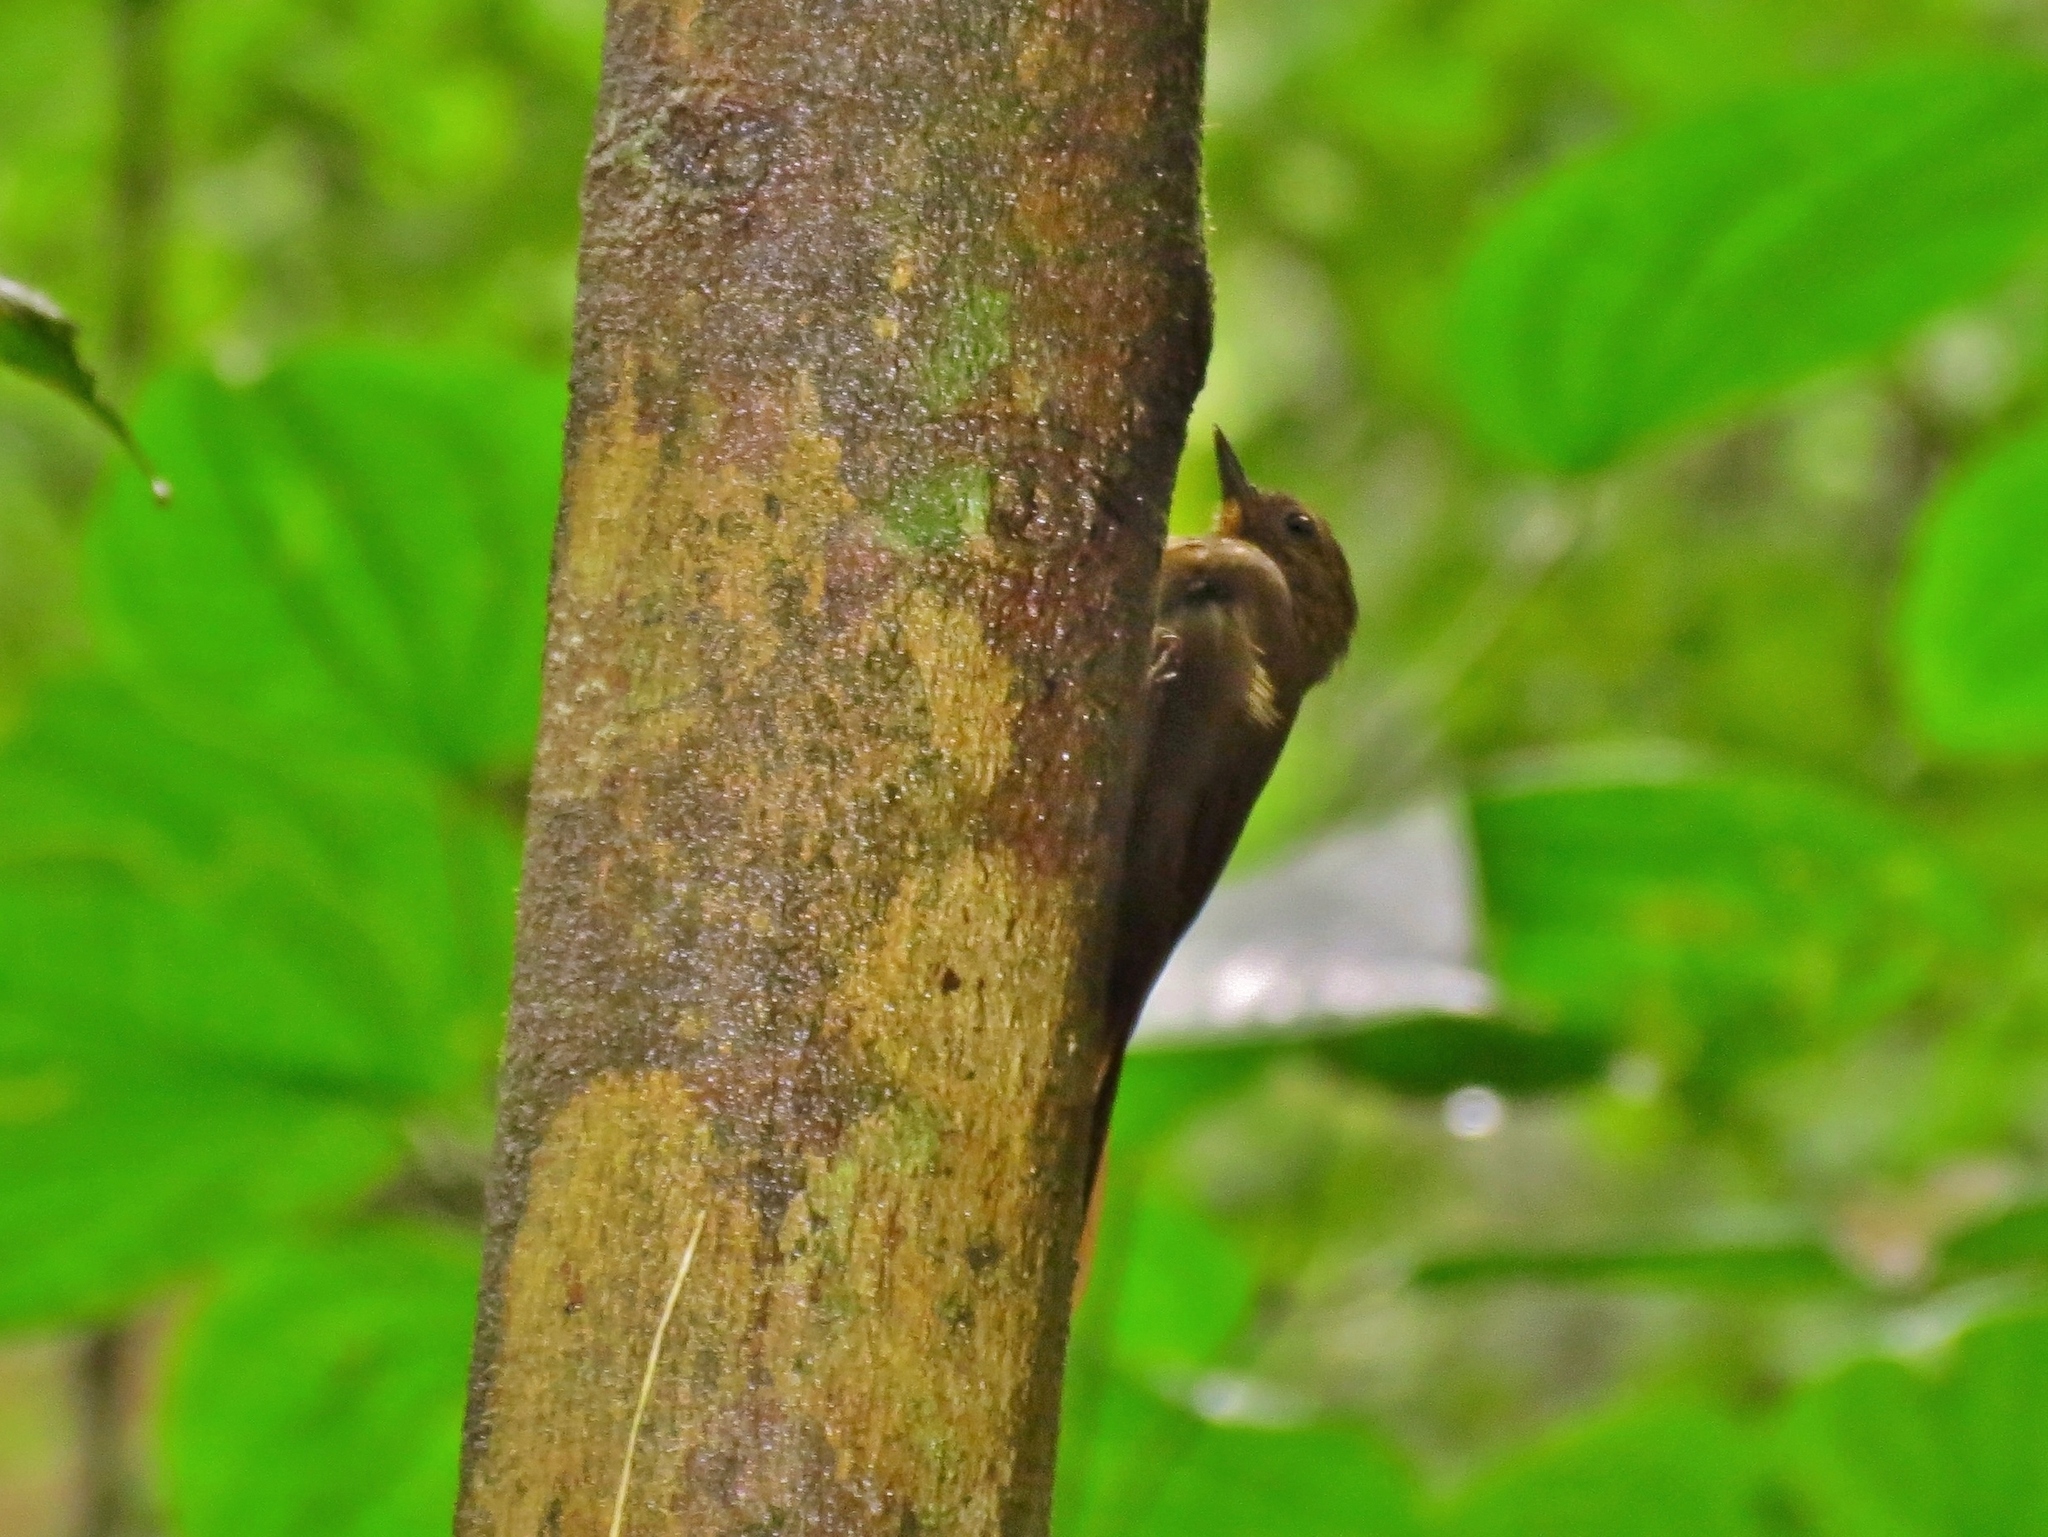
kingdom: Animalia
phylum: Chordata
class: Aves
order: Passeriformes
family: Furnariidae
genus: Glyphorynchus
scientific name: Glyphorynchus spirurus
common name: Wedge-billed woodcreeper
